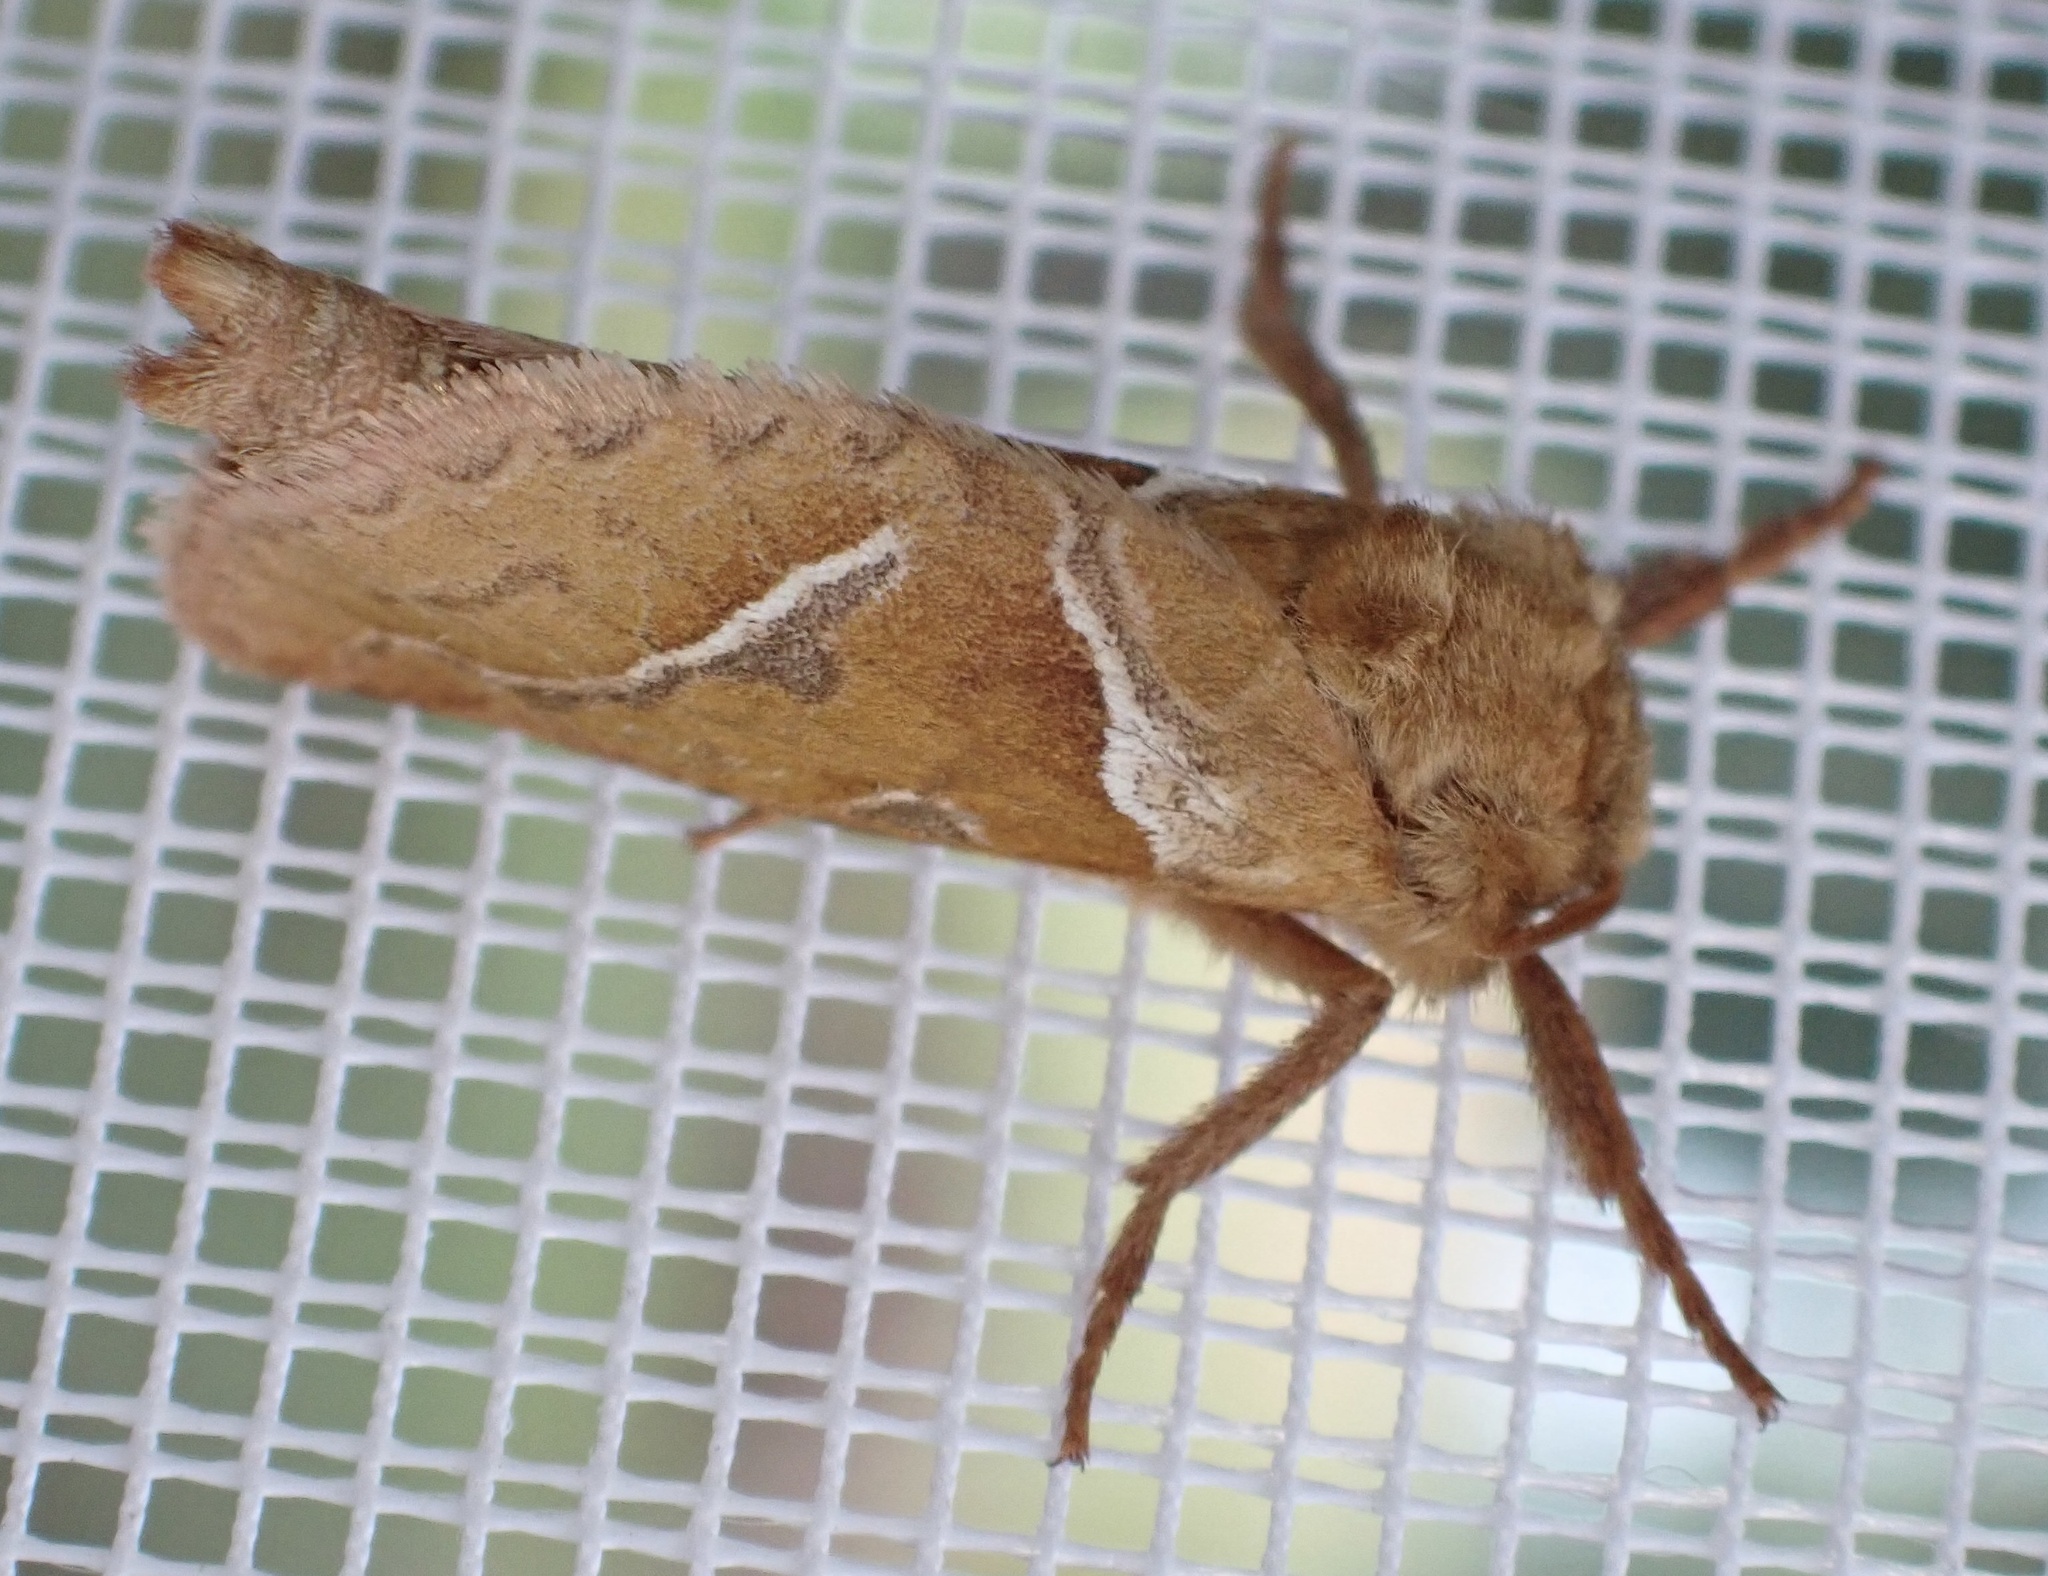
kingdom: Animalia
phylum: Arthropoda
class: Insecta
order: Lepidoptera
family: Hepialidae
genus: Triodia
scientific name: Triodia sylvina
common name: Orange swift
